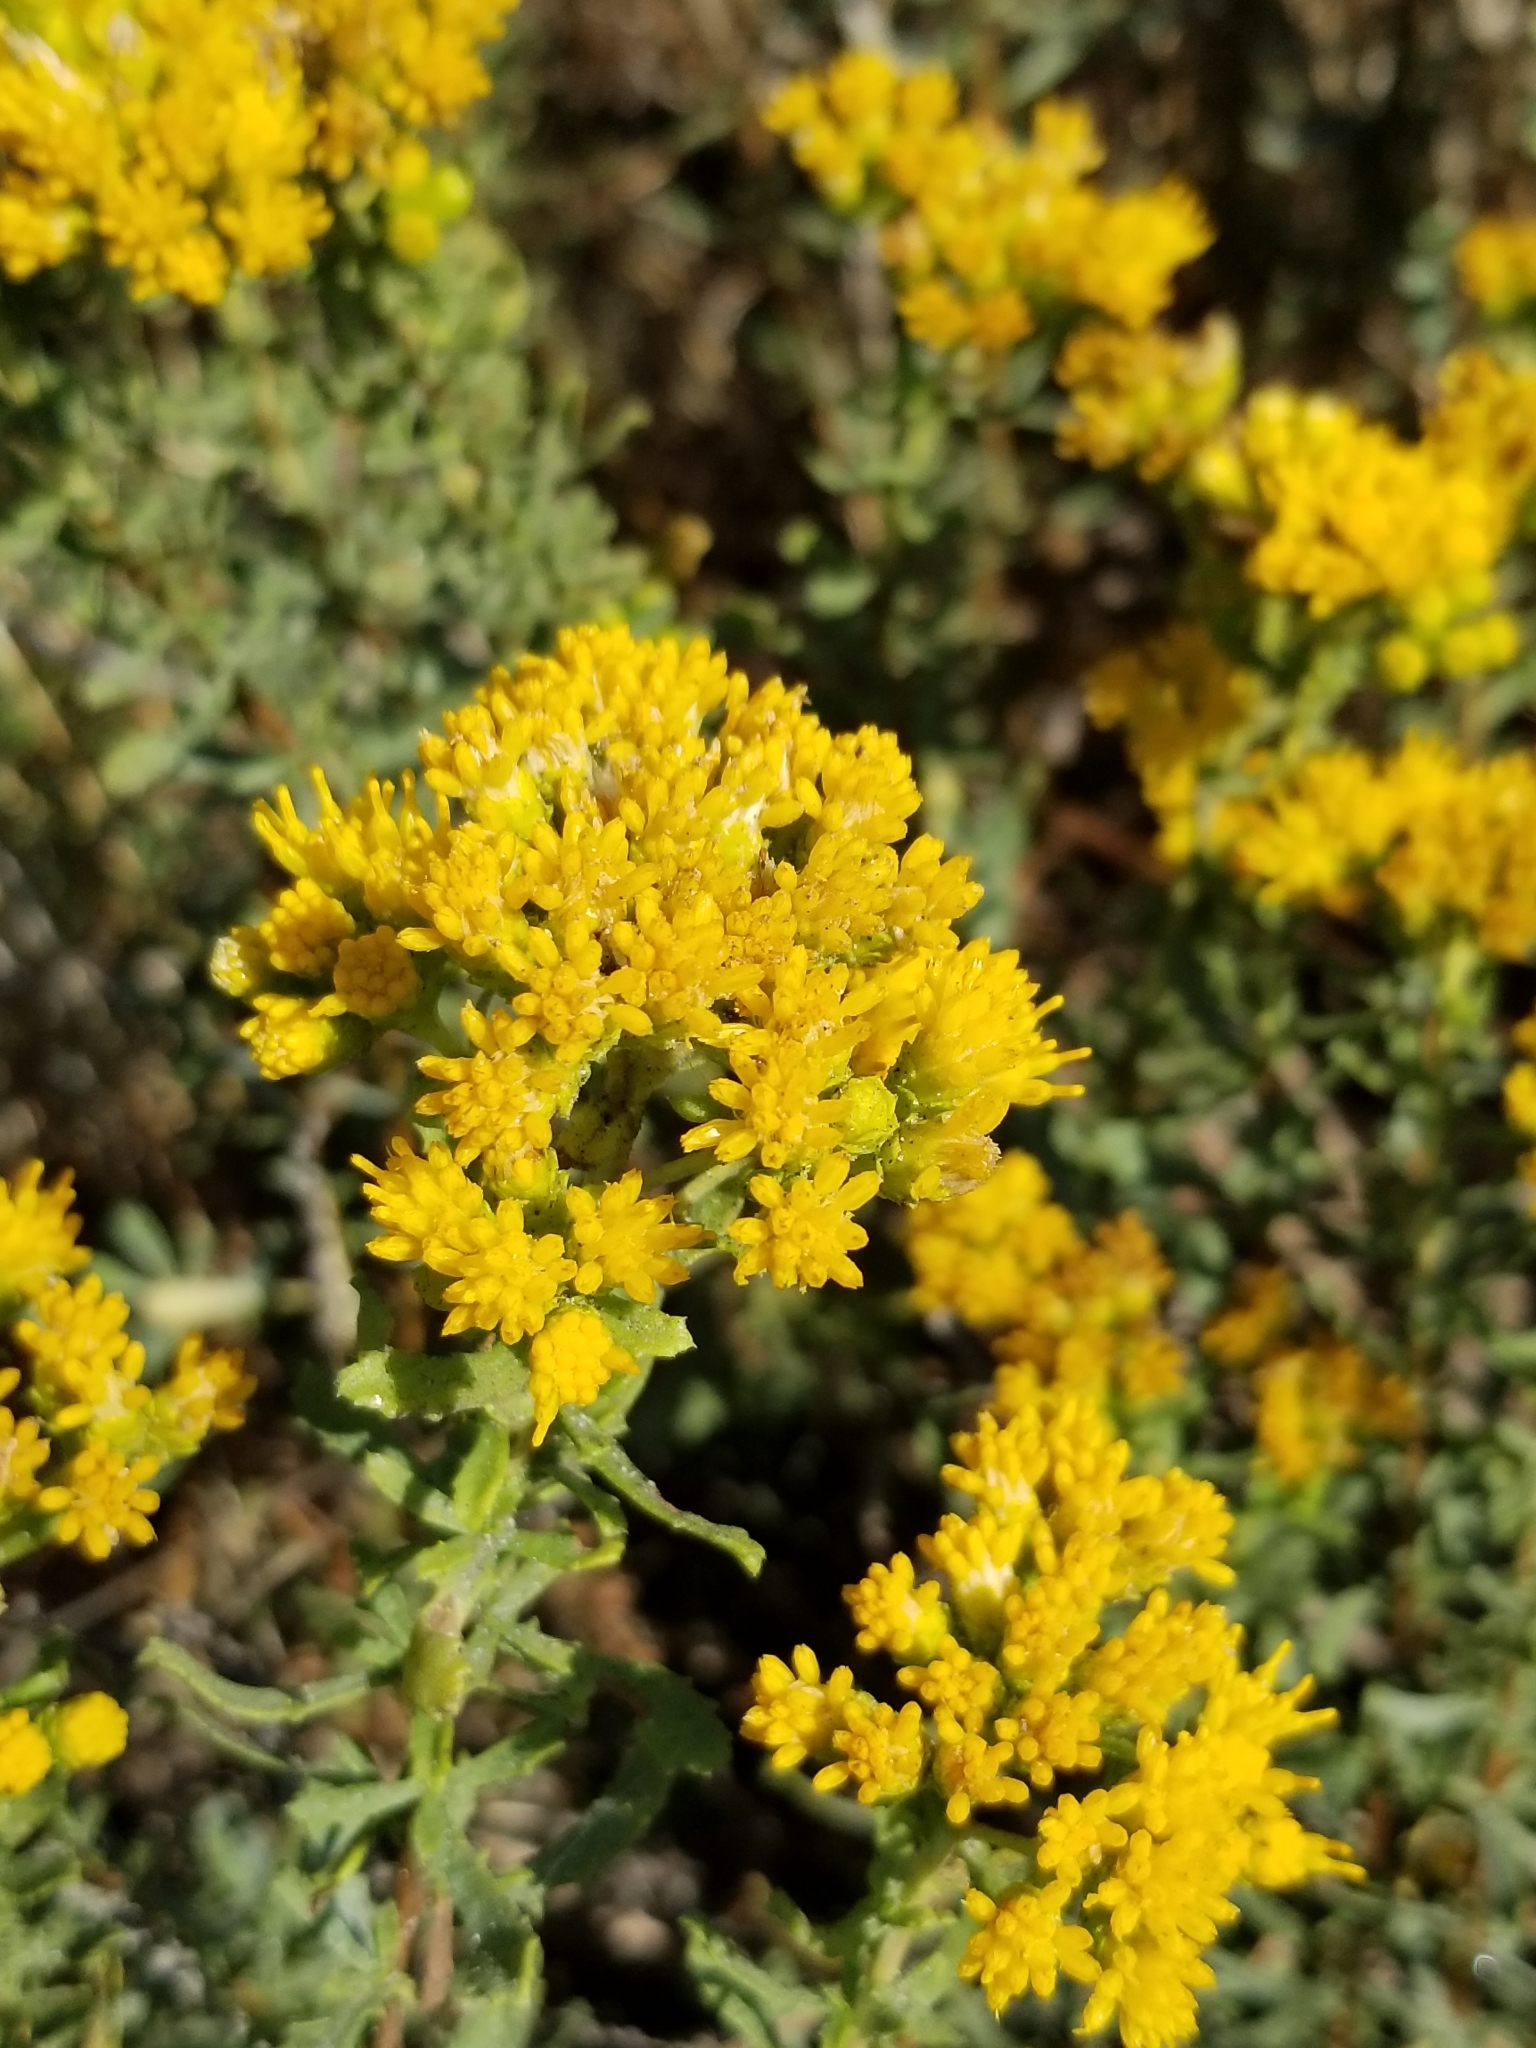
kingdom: Plantae
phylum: Tracheophyta
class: Magnoliopsida
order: Asterales
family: Asteraceae
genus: Isocoma
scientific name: Isocoma menziesii
